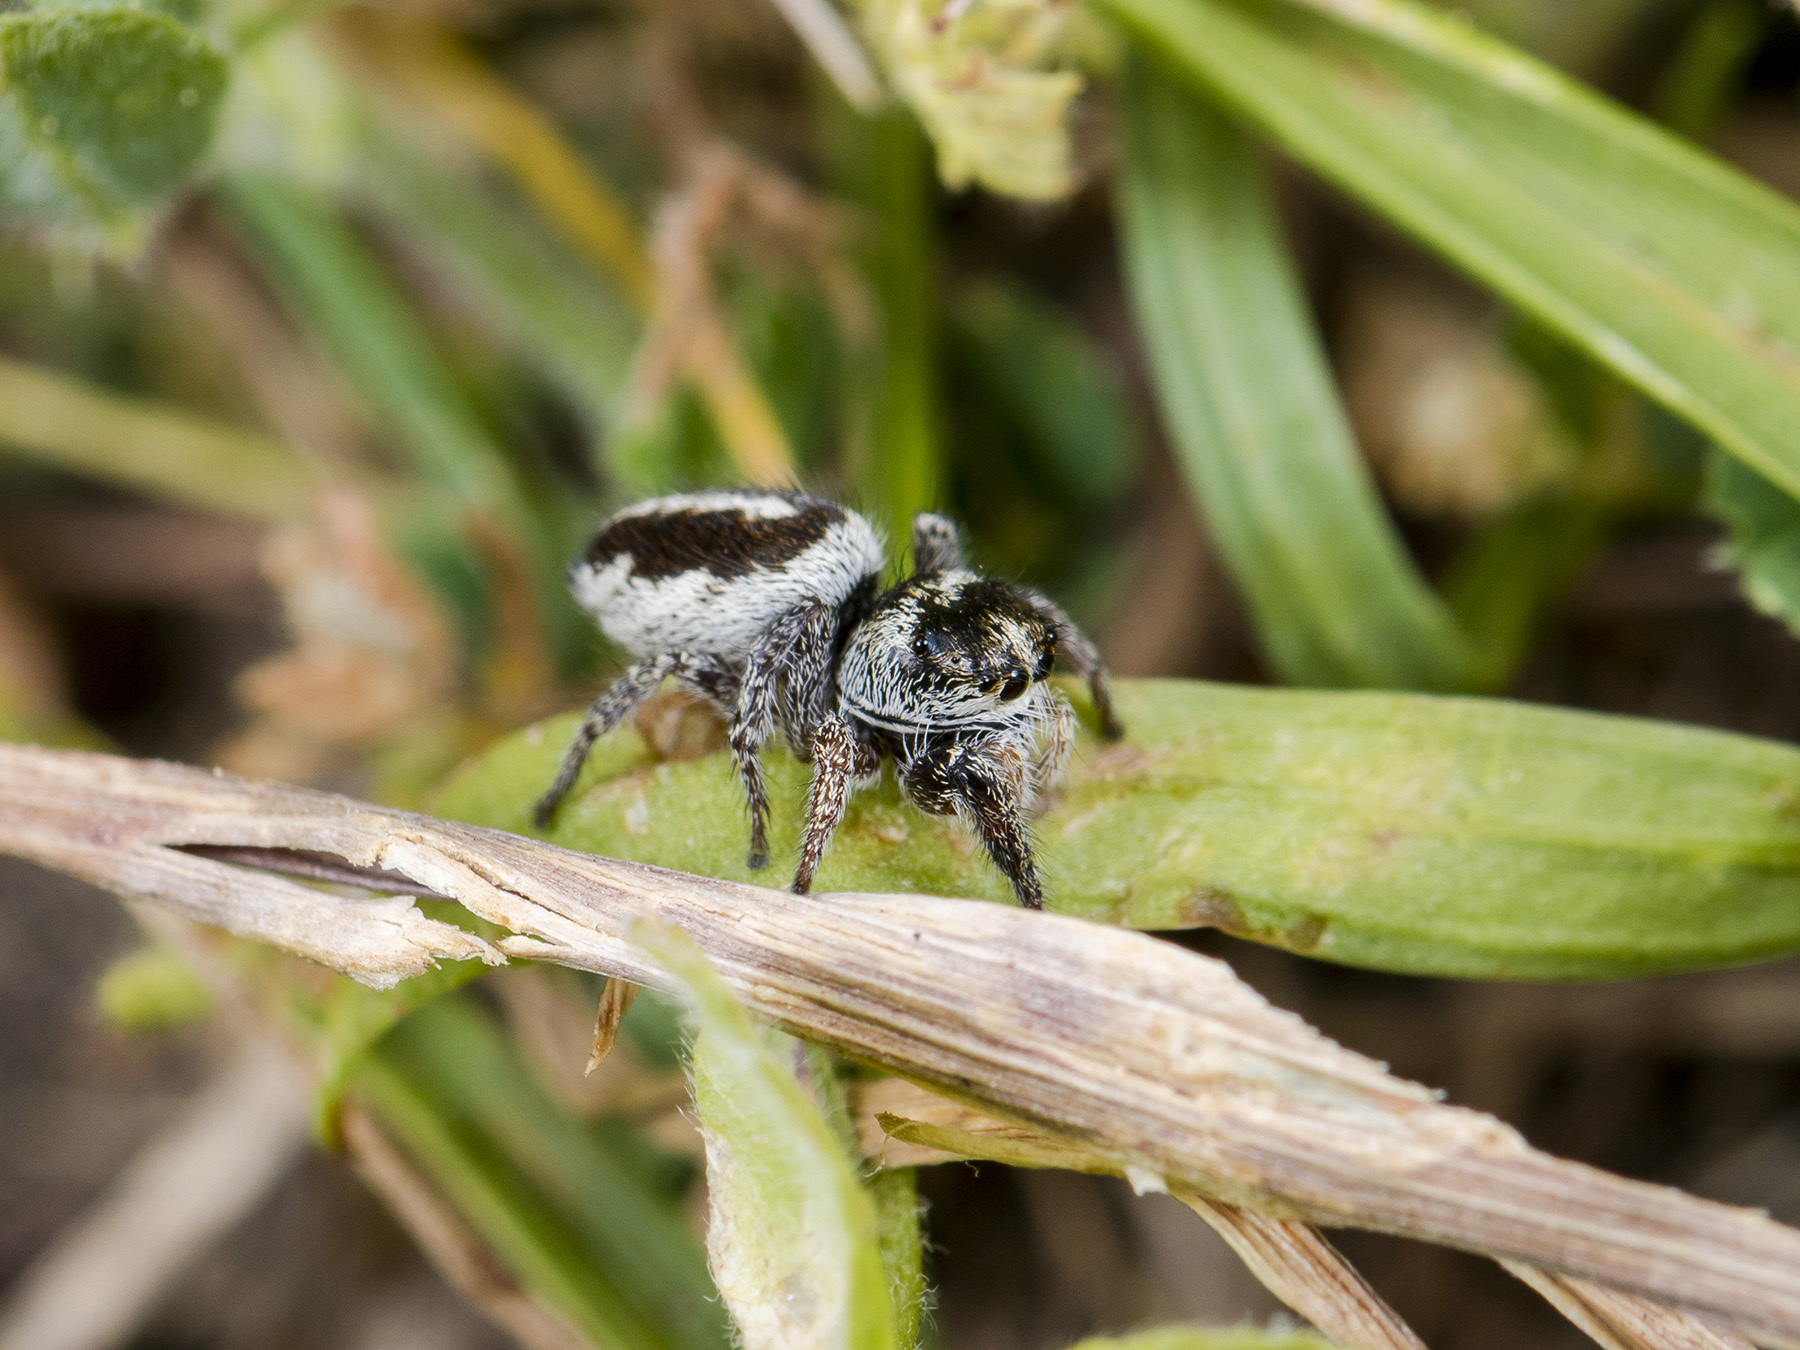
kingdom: Animalia
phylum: Arthropoda
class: Arachnida
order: Araneae
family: Salticidae
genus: Pellenes
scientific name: Pellenes allegrii
